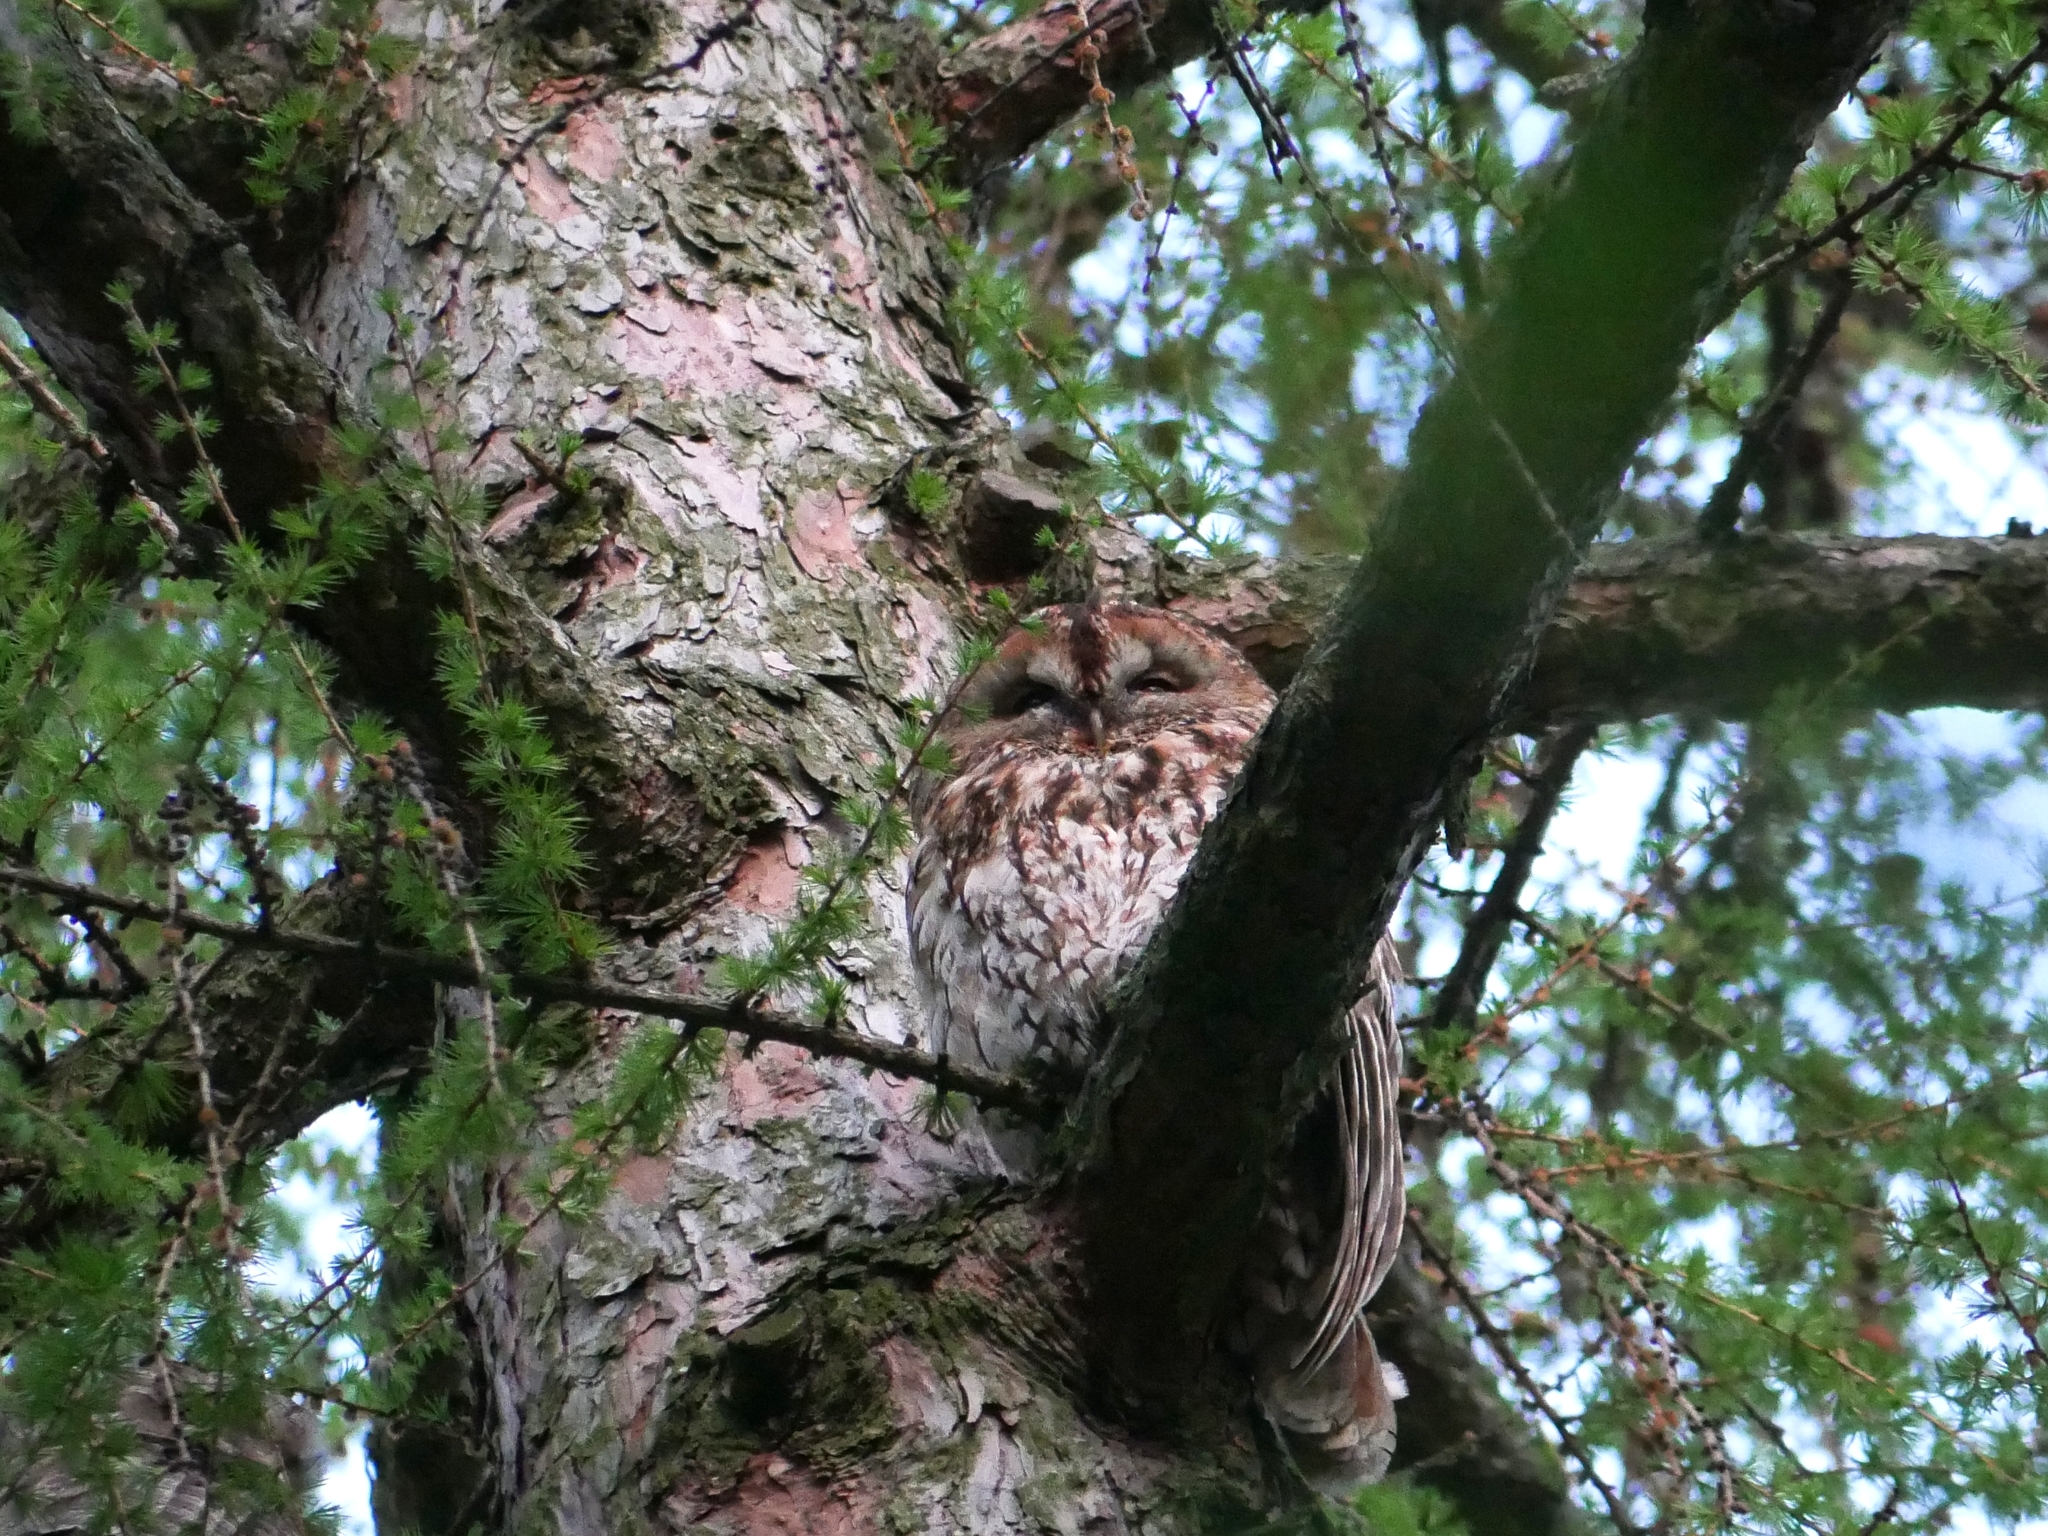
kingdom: Animalia
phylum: Chordata
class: Aves
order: Strigiformes
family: Strigidae
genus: Strix
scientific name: Strix aluco
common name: Tawny owl
